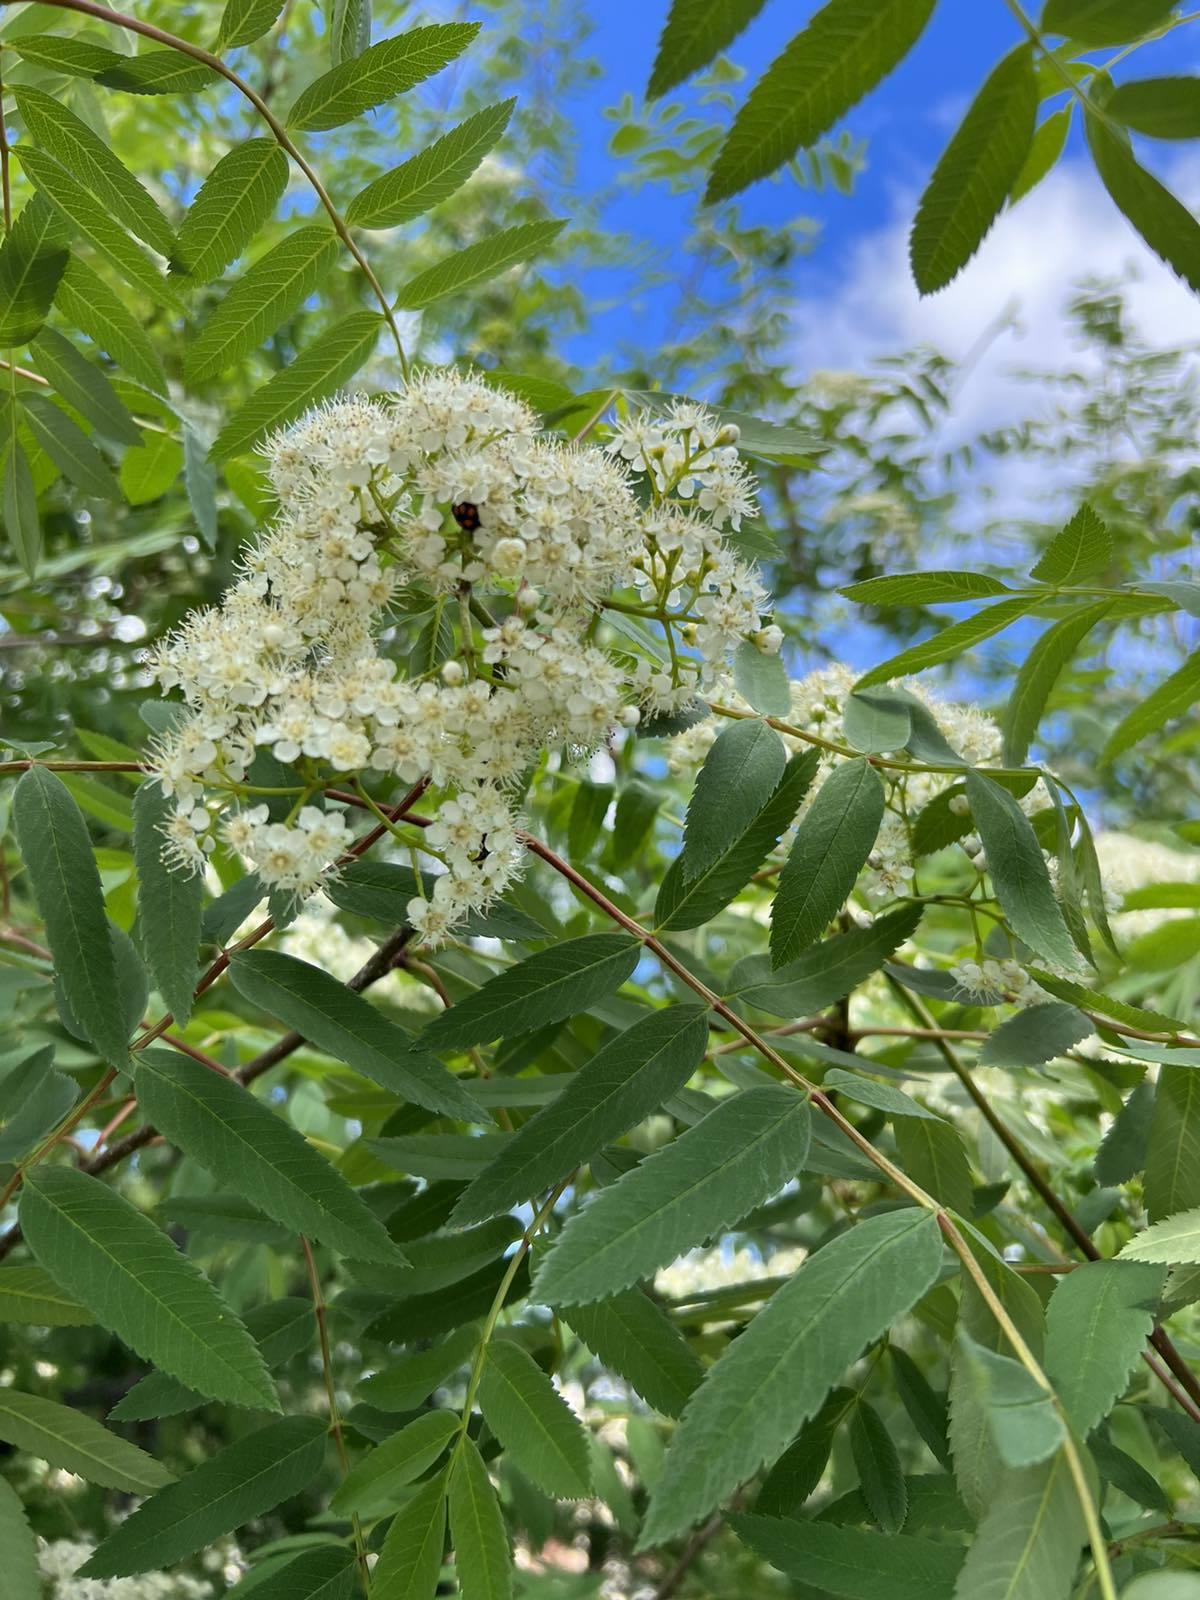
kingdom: Plantae
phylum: Tracheophyta
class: Magnoliopsida
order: Rosales
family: Rosaceae
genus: Sorbus
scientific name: Sorbus aucuparia
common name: Rowan
